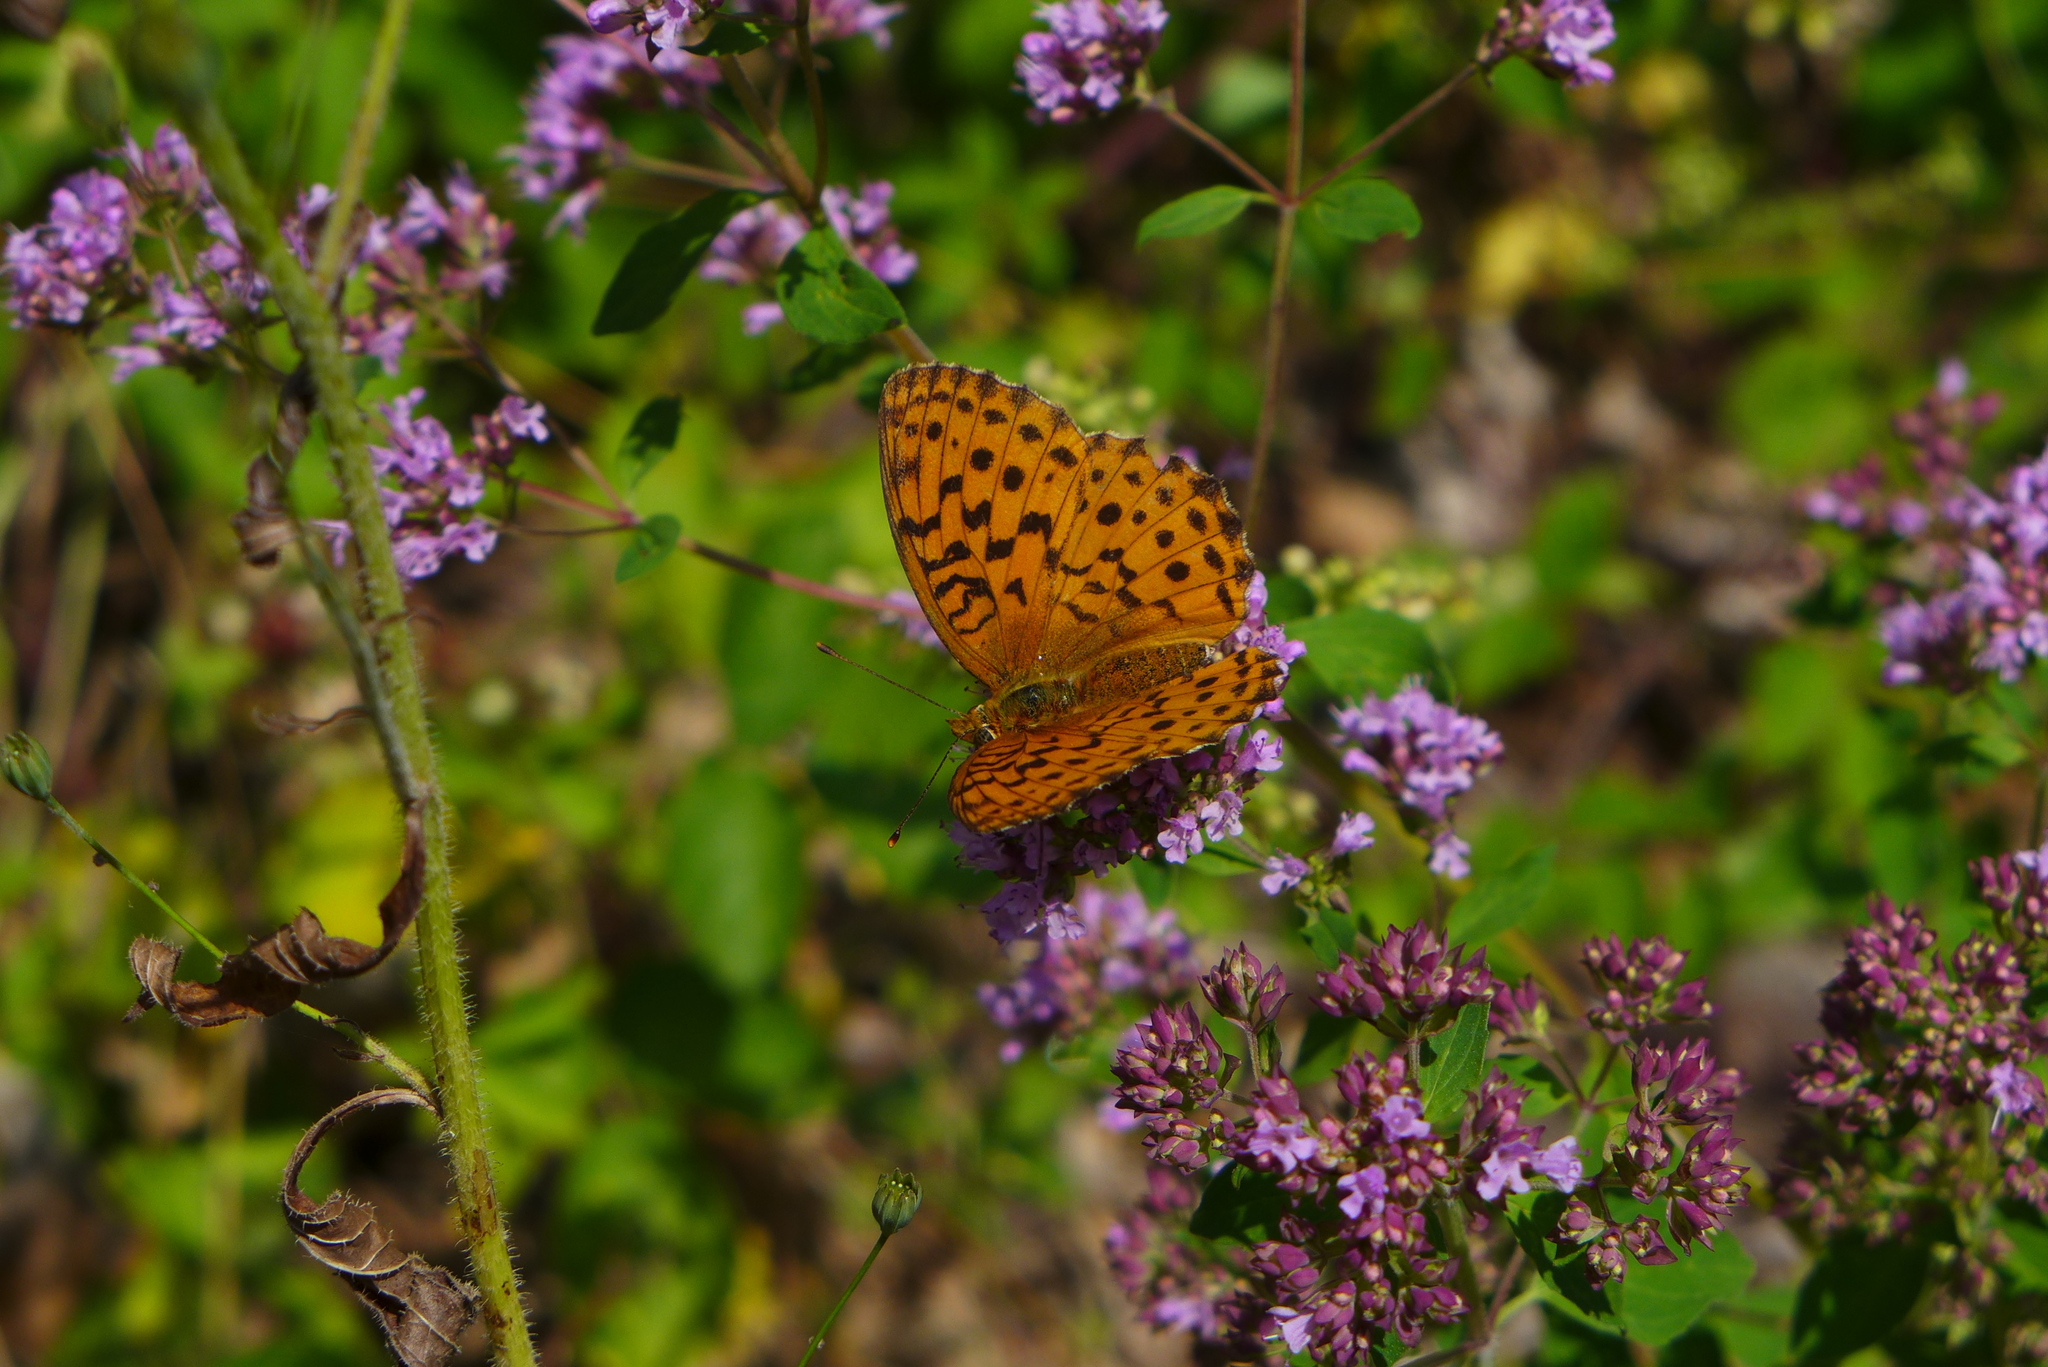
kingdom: Animalia
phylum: Arthropoda
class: Insecta
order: Lepidoptera
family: Nymphalidae
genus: Brenthis
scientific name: Brenthis daphne
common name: Marbled fritillary
